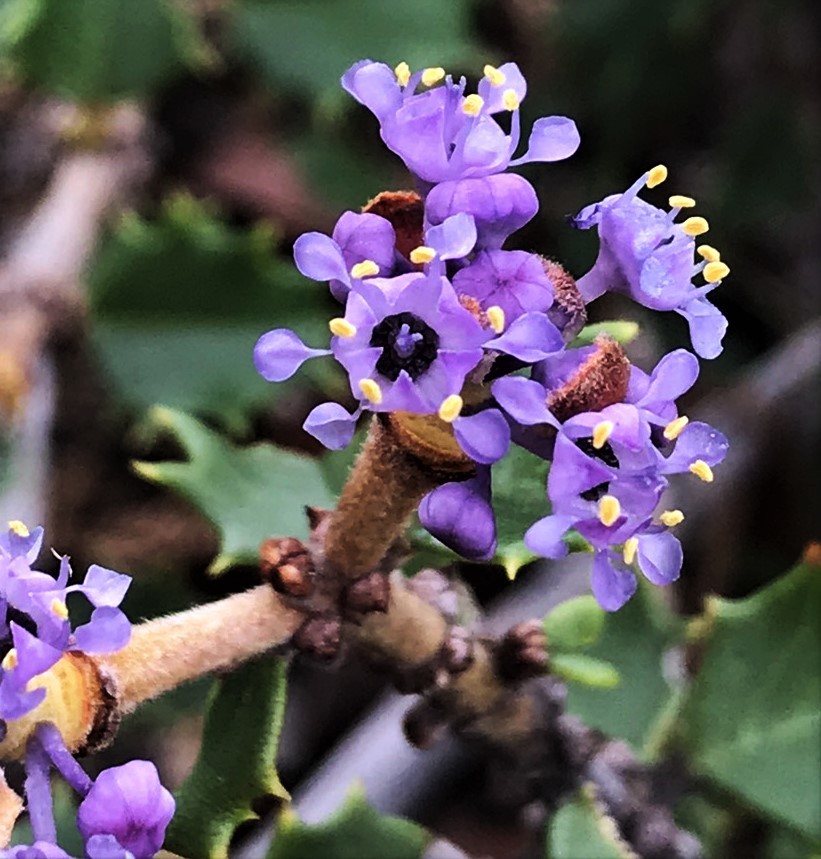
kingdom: Plantae
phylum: Tracheophyta
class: Magnoliopsida
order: Rosales
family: Rhamnaceae
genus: Ceanothus
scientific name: Ceanothus jepsonii
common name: Muskbrush
